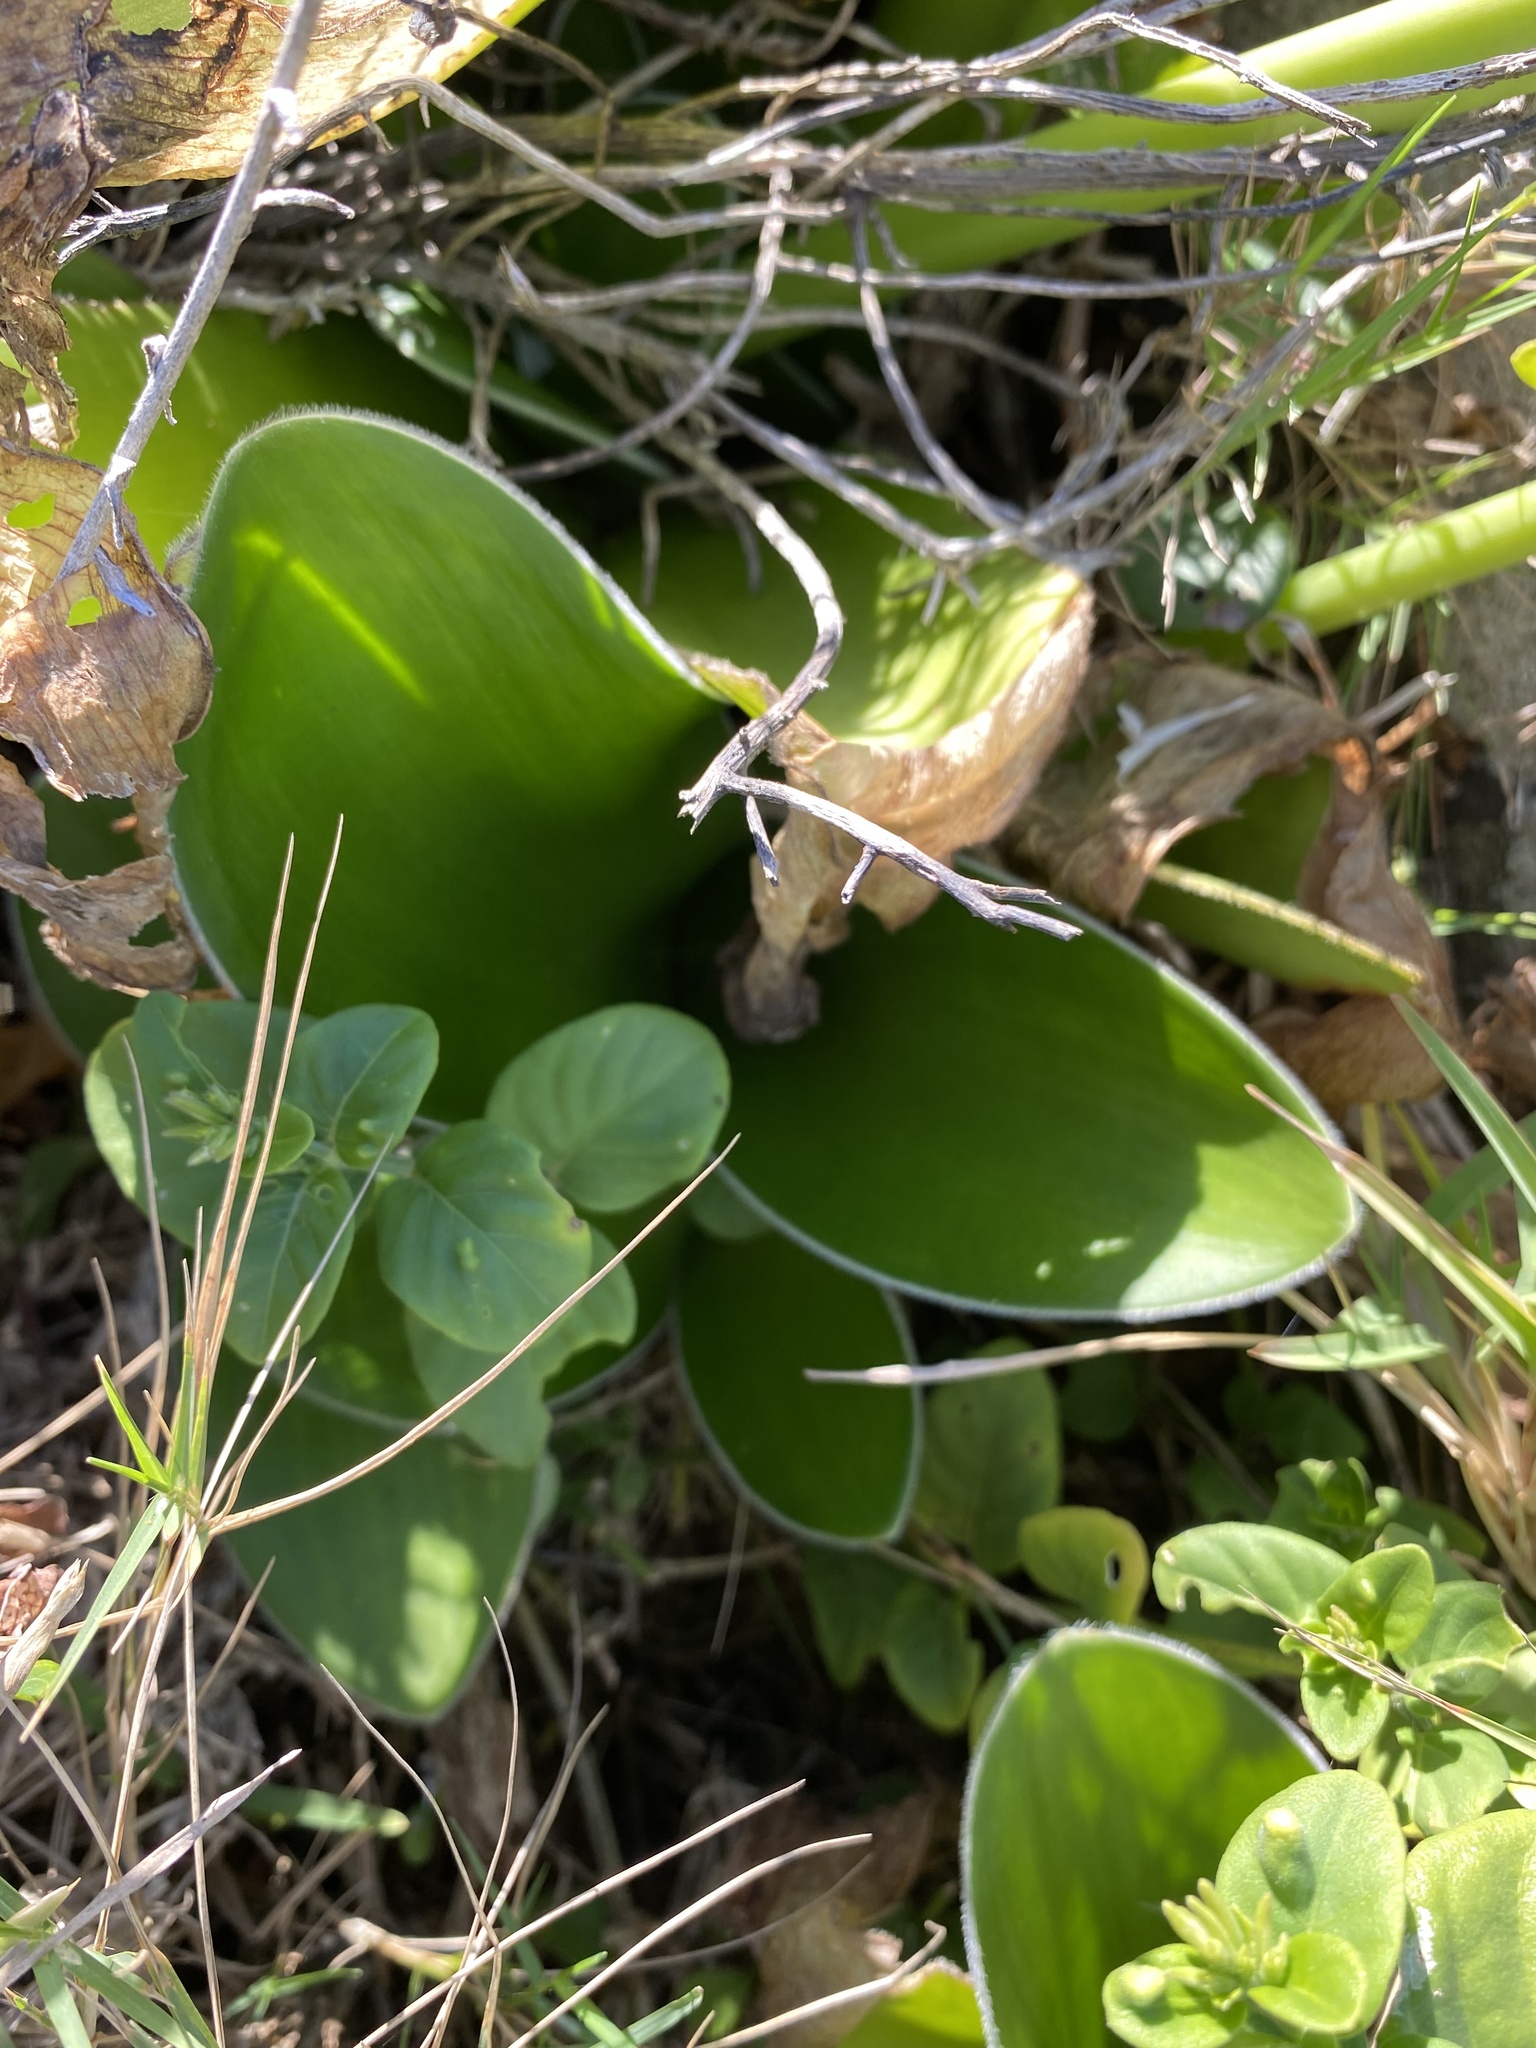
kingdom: Plantae
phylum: Tracheophyta
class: Liliopsida
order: Asparagales
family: Amaryllidaceae
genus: Haemanthus
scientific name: Haemanthus albiflos
